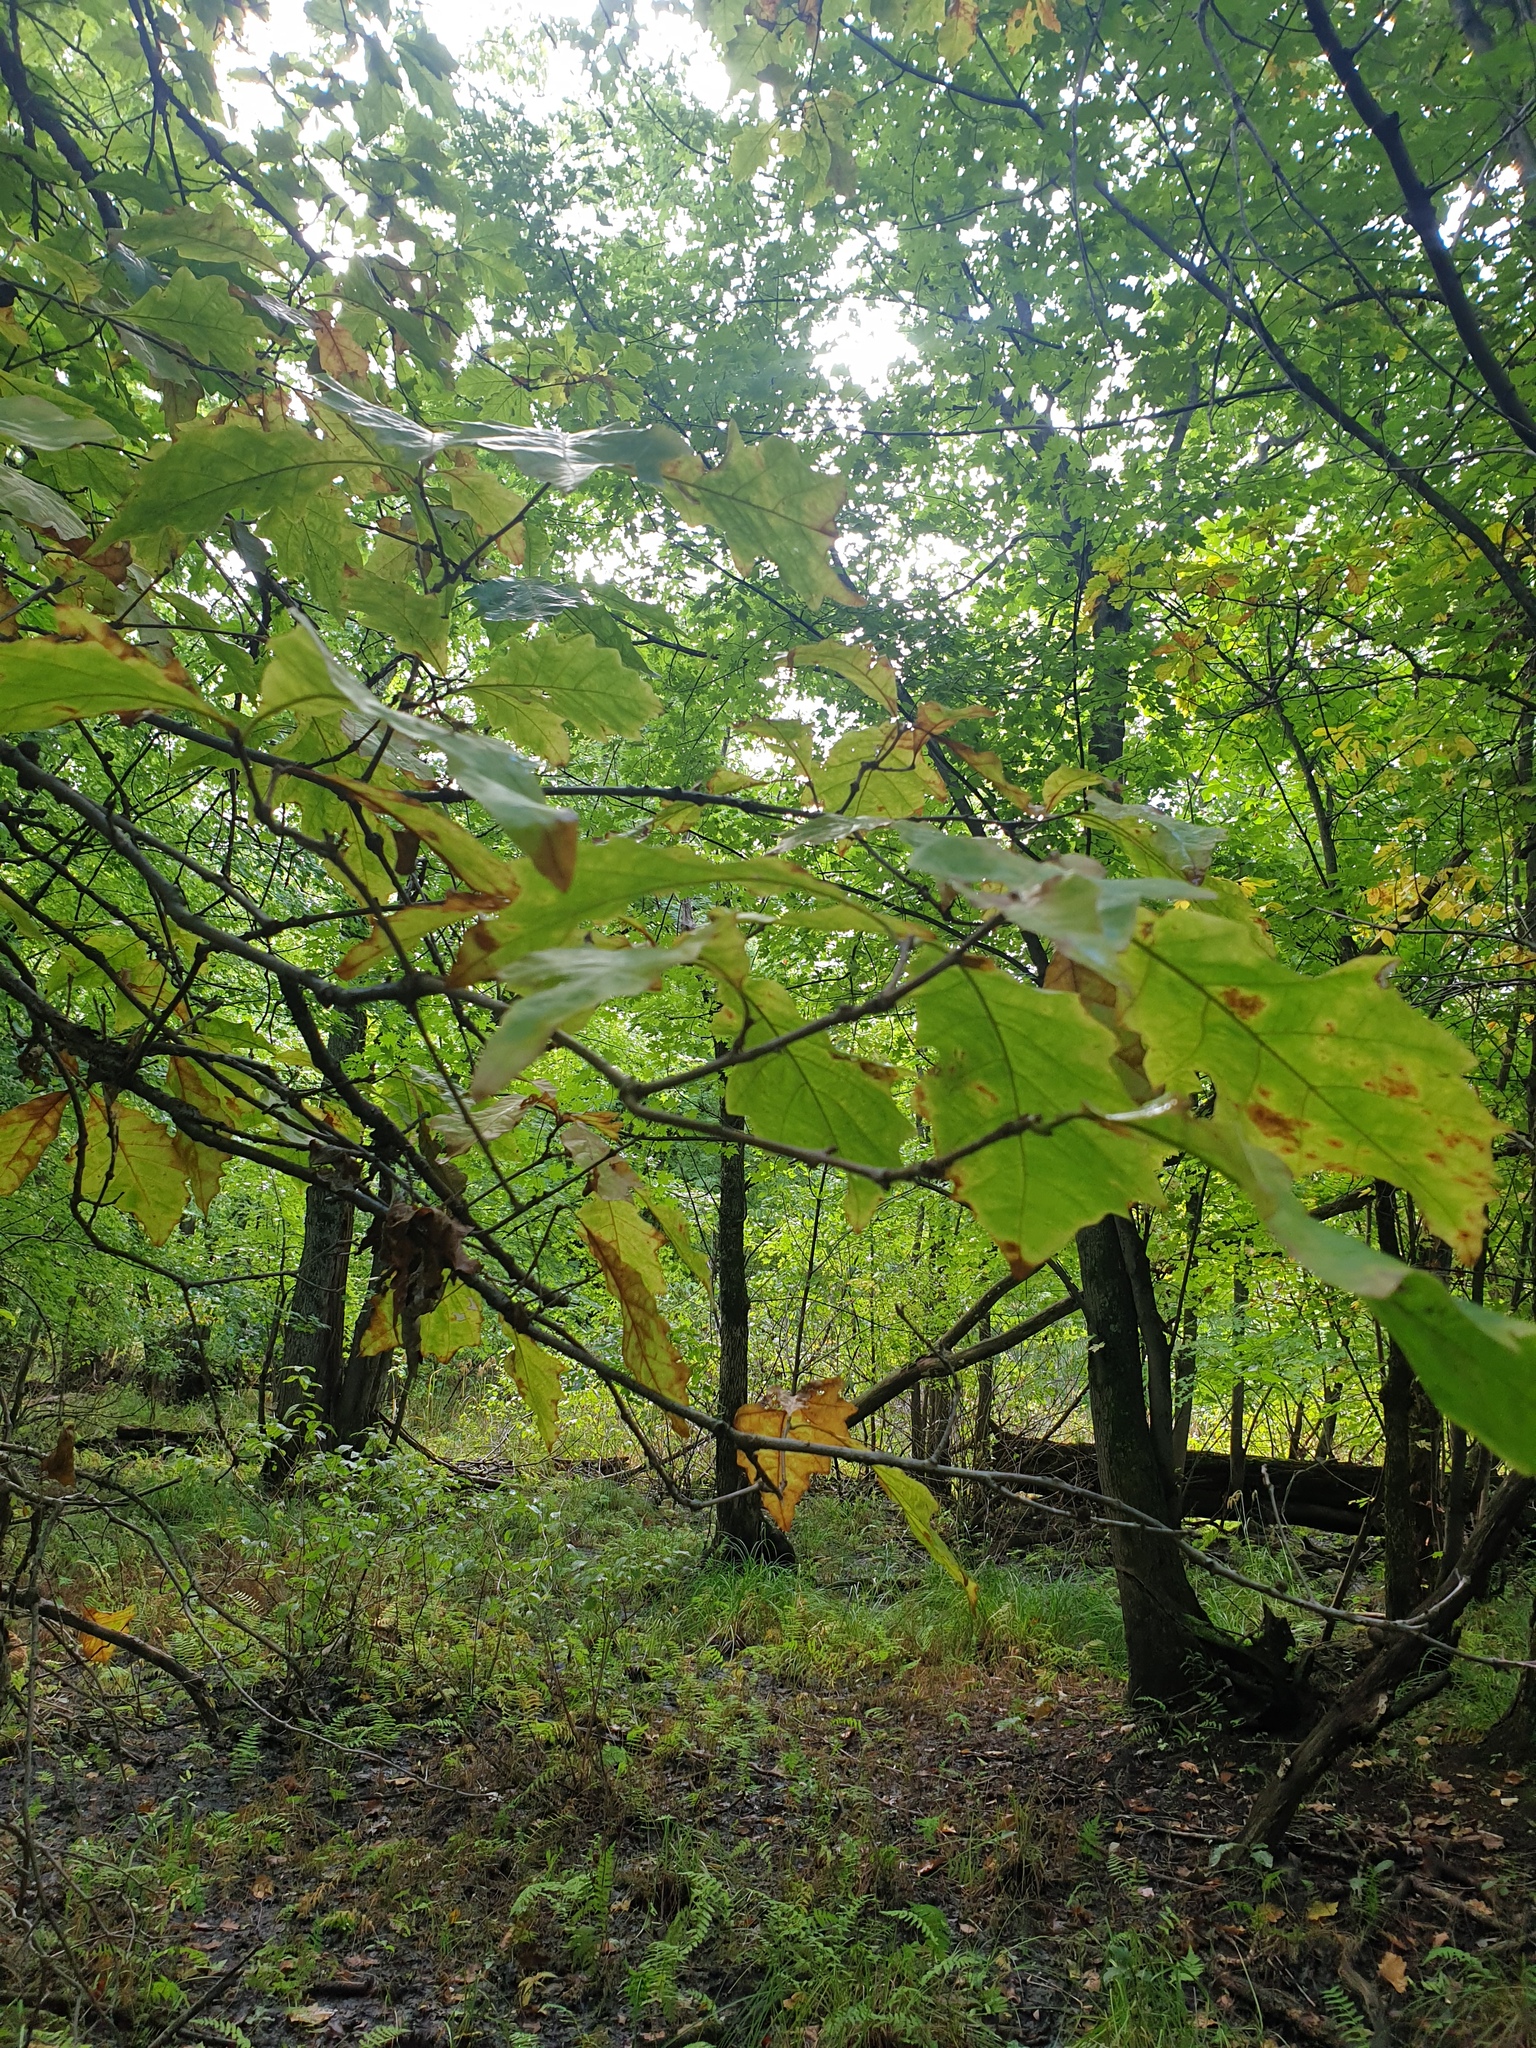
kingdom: Plantae
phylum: Tracheophyta
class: Magnoliopsida
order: Fagales
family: Fagaceae
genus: Quercus
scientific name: Quercus bicolor
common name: Swamp white oak
